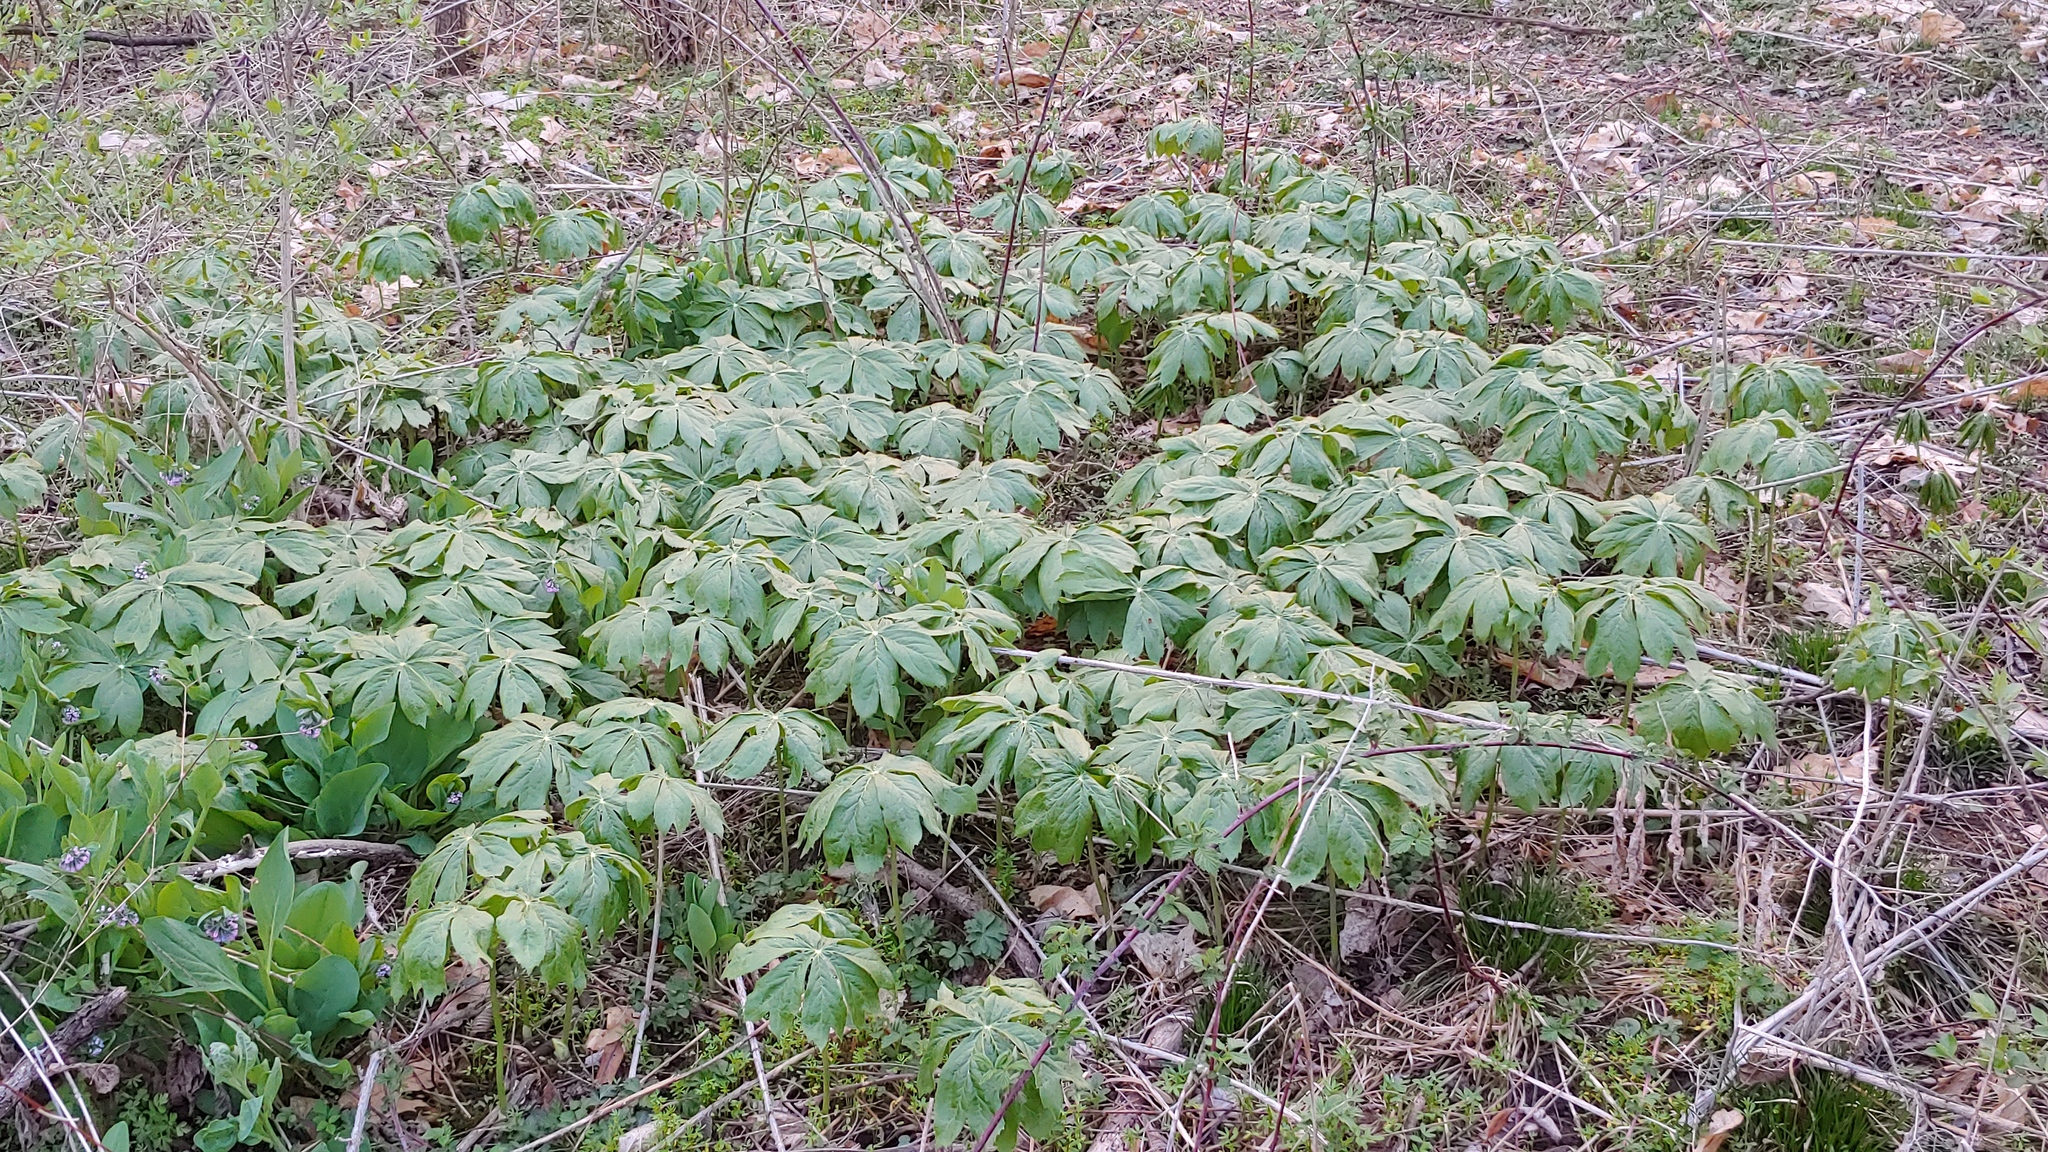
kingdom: Plantae
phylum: Tracheophyta
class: Magnoliopsida
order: Ranunculales
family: Berberidaceae
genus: Podophyllum
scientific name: Podophyllum peltatum
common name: Wild mandrake
